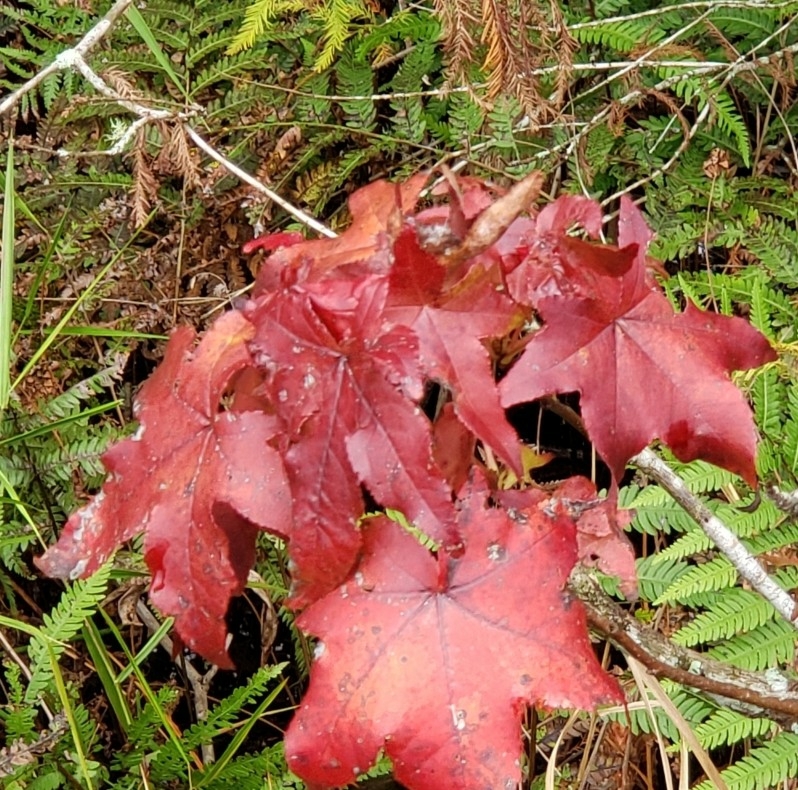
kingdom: Plantae
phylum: Tracheophyta
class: Magnoliopsida
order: Saxifragales
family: Altingiaceae
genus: Liquidambar
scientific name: Liquidambar styraciflua
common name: Sweet gum
